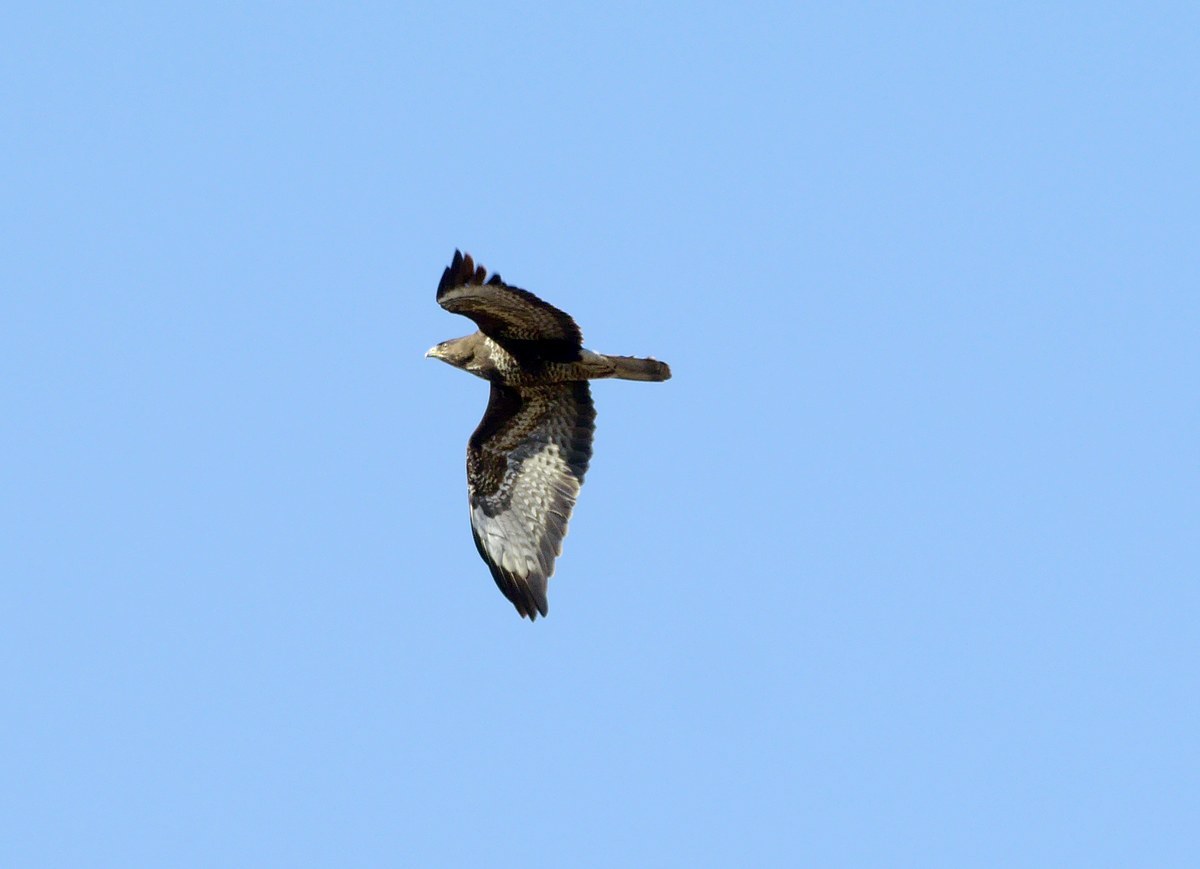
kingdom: Animalia
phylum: Chordata
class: Aves
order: Accipitriformes
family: Accipitridae
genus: Buteo
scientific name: Buteo buteo
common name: Common buzzard
